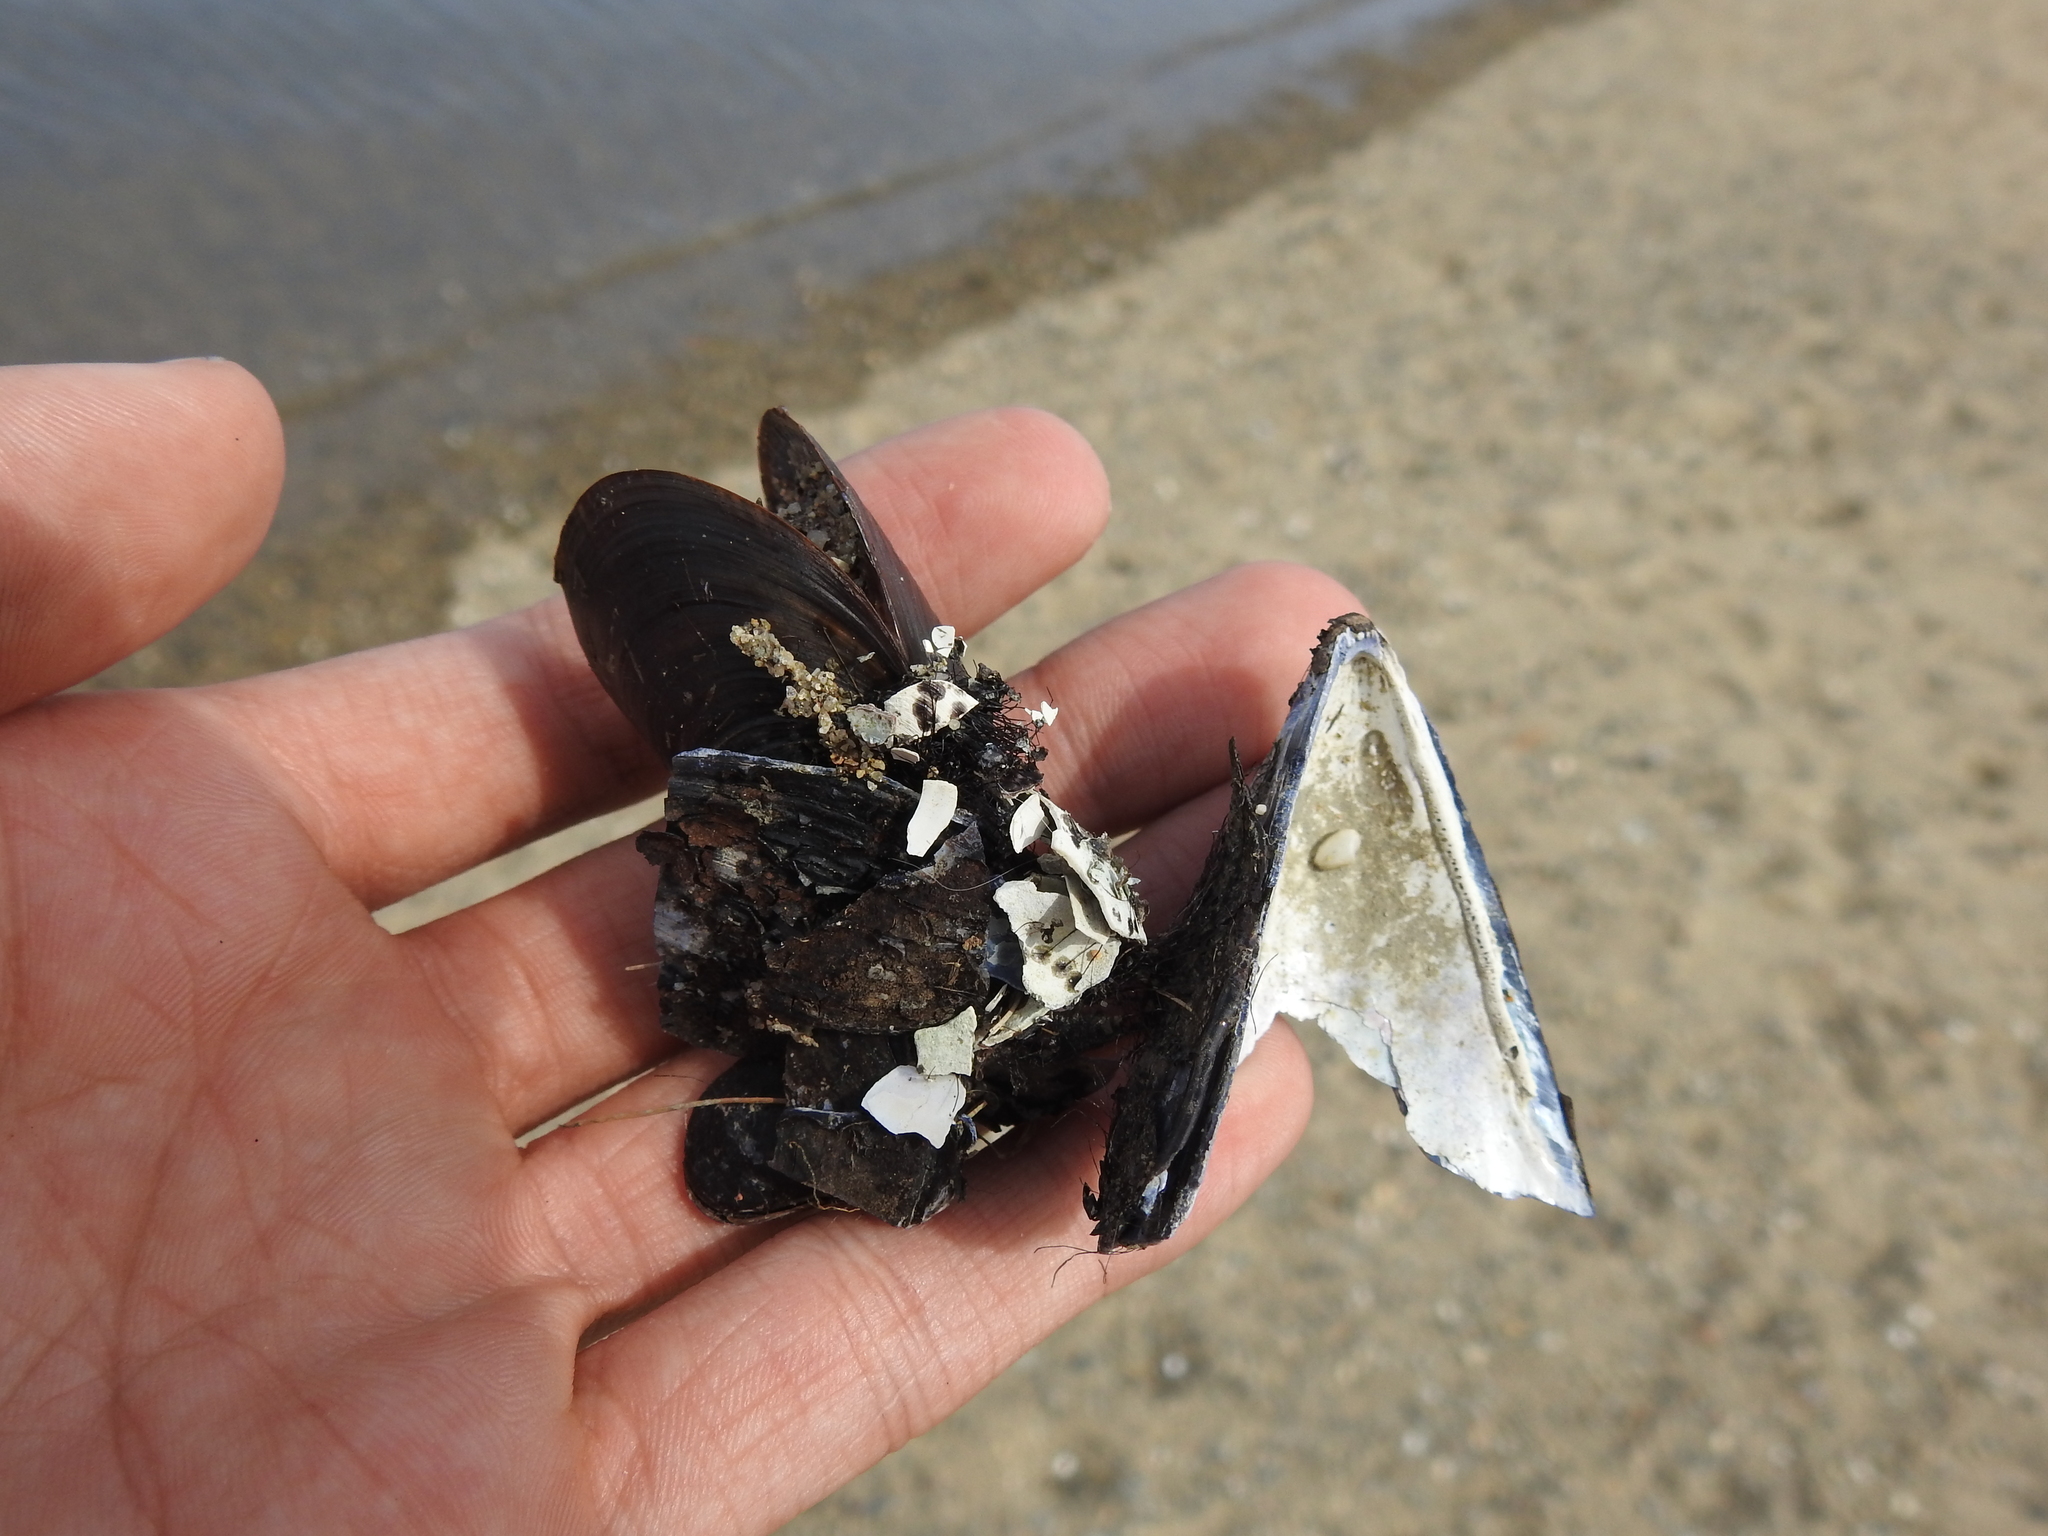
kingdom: Animalia
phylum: Mollusca
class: Bivalvia
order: Mytilida
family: Mytilidae
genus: Mytilus
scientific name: Mytilus edulis
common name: Blue mussel
